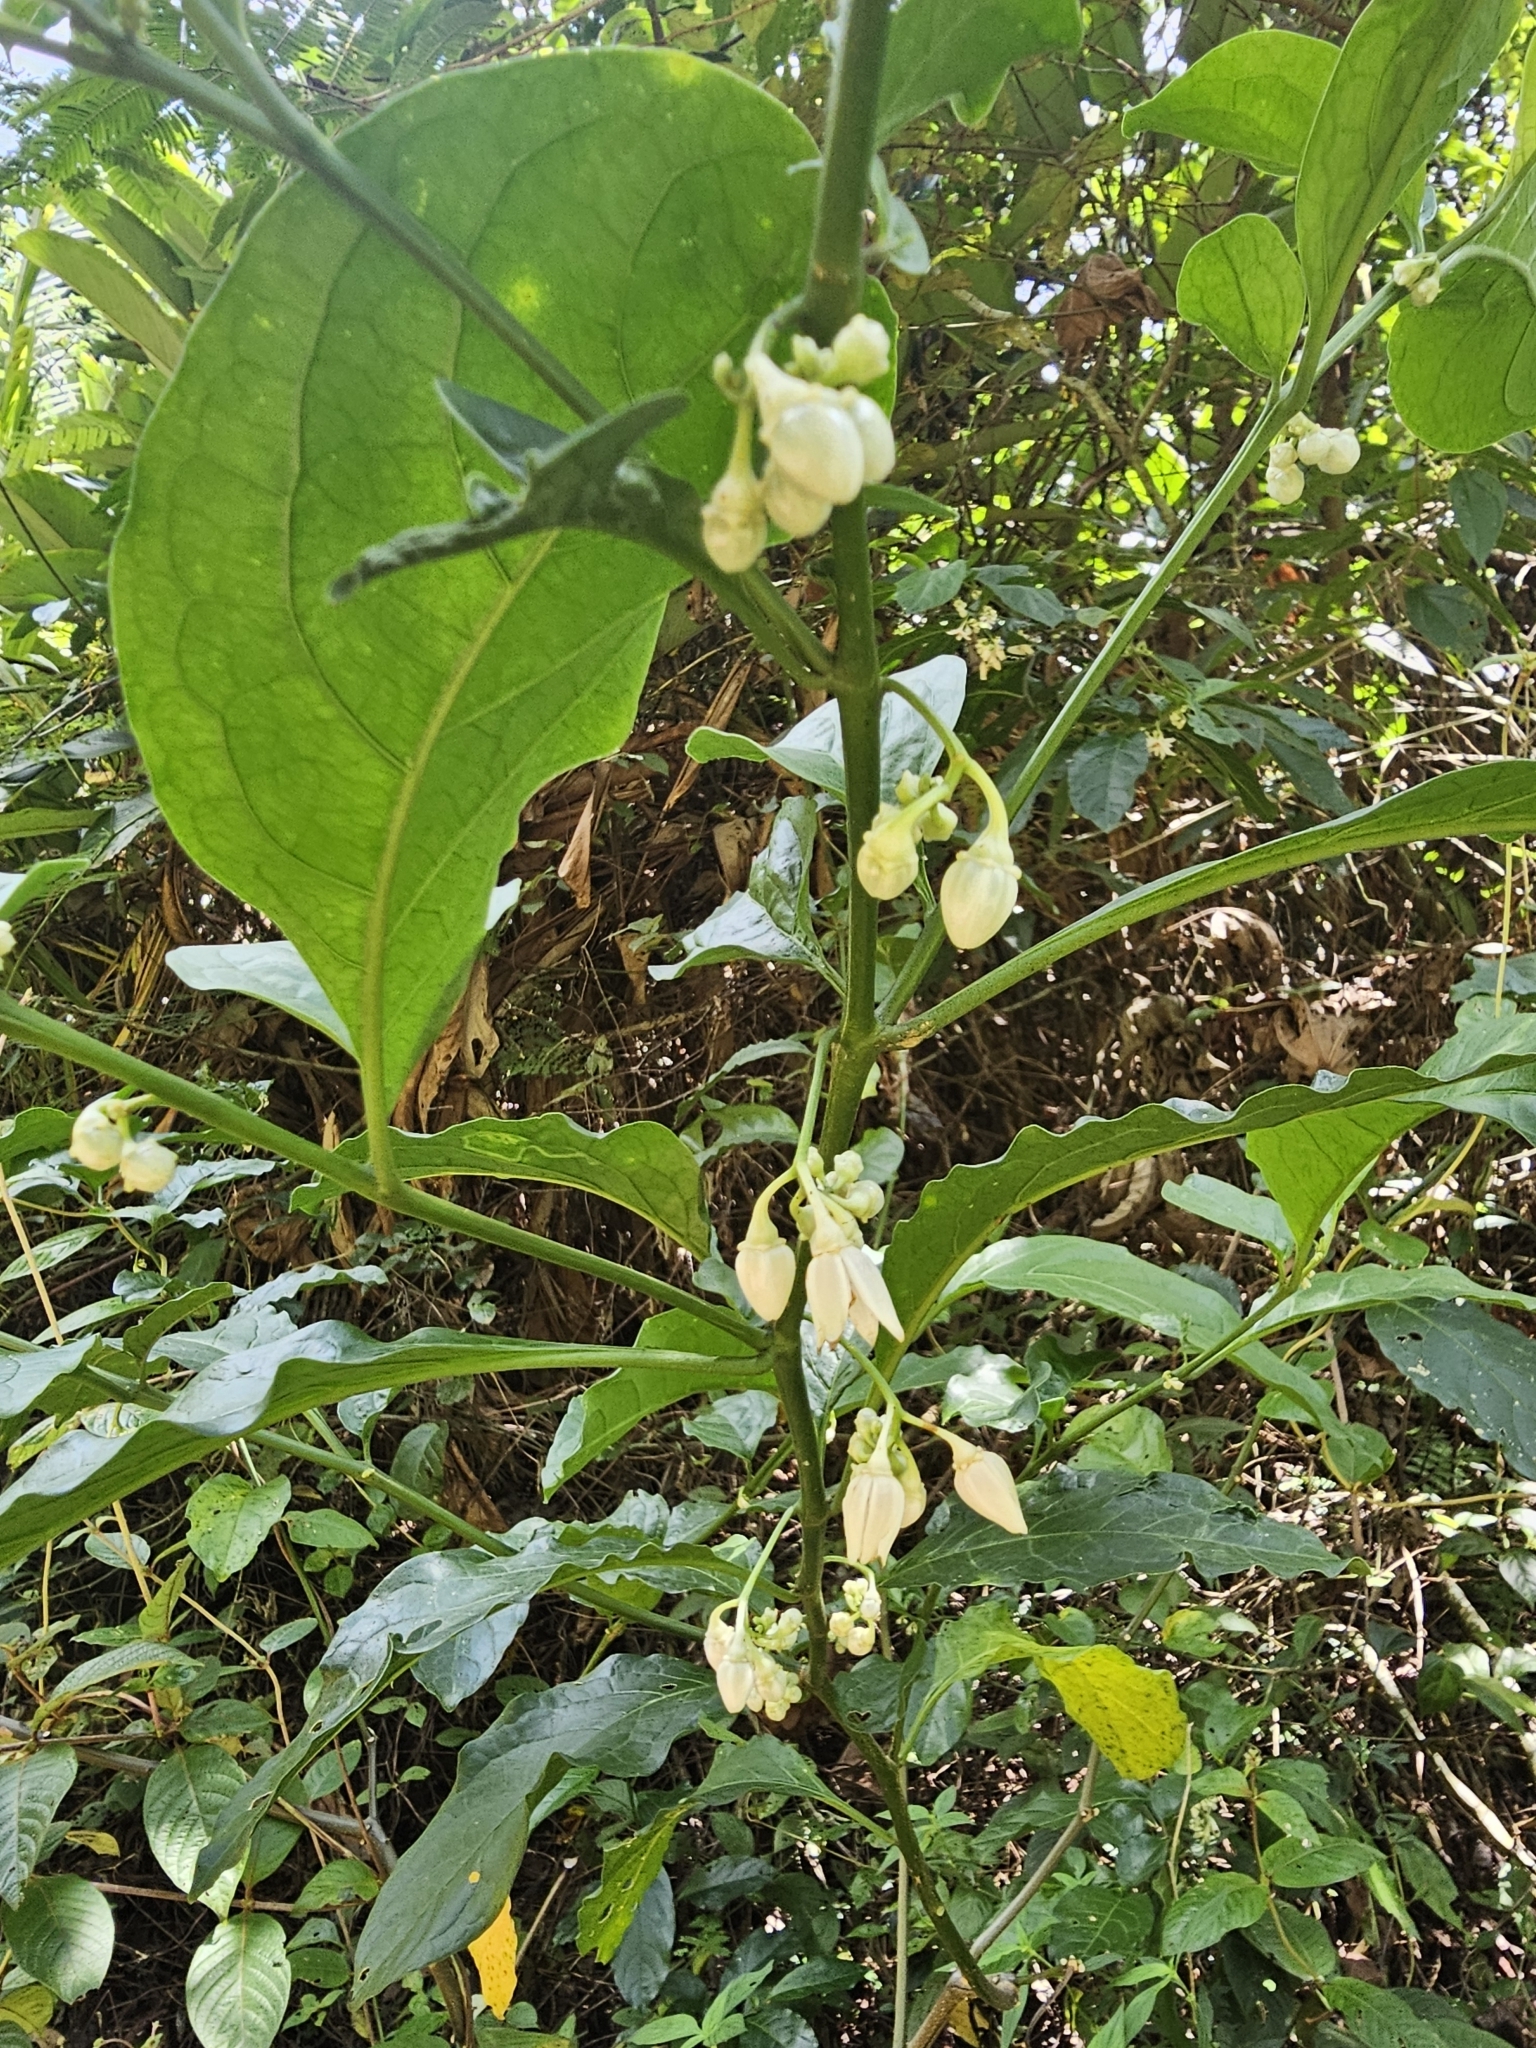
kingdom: Plantae
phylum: Tracheophyta
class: Magnoliopsida
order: Solanales
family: Solanaceae
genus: Solanum
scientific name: Solanum leucocarpon
